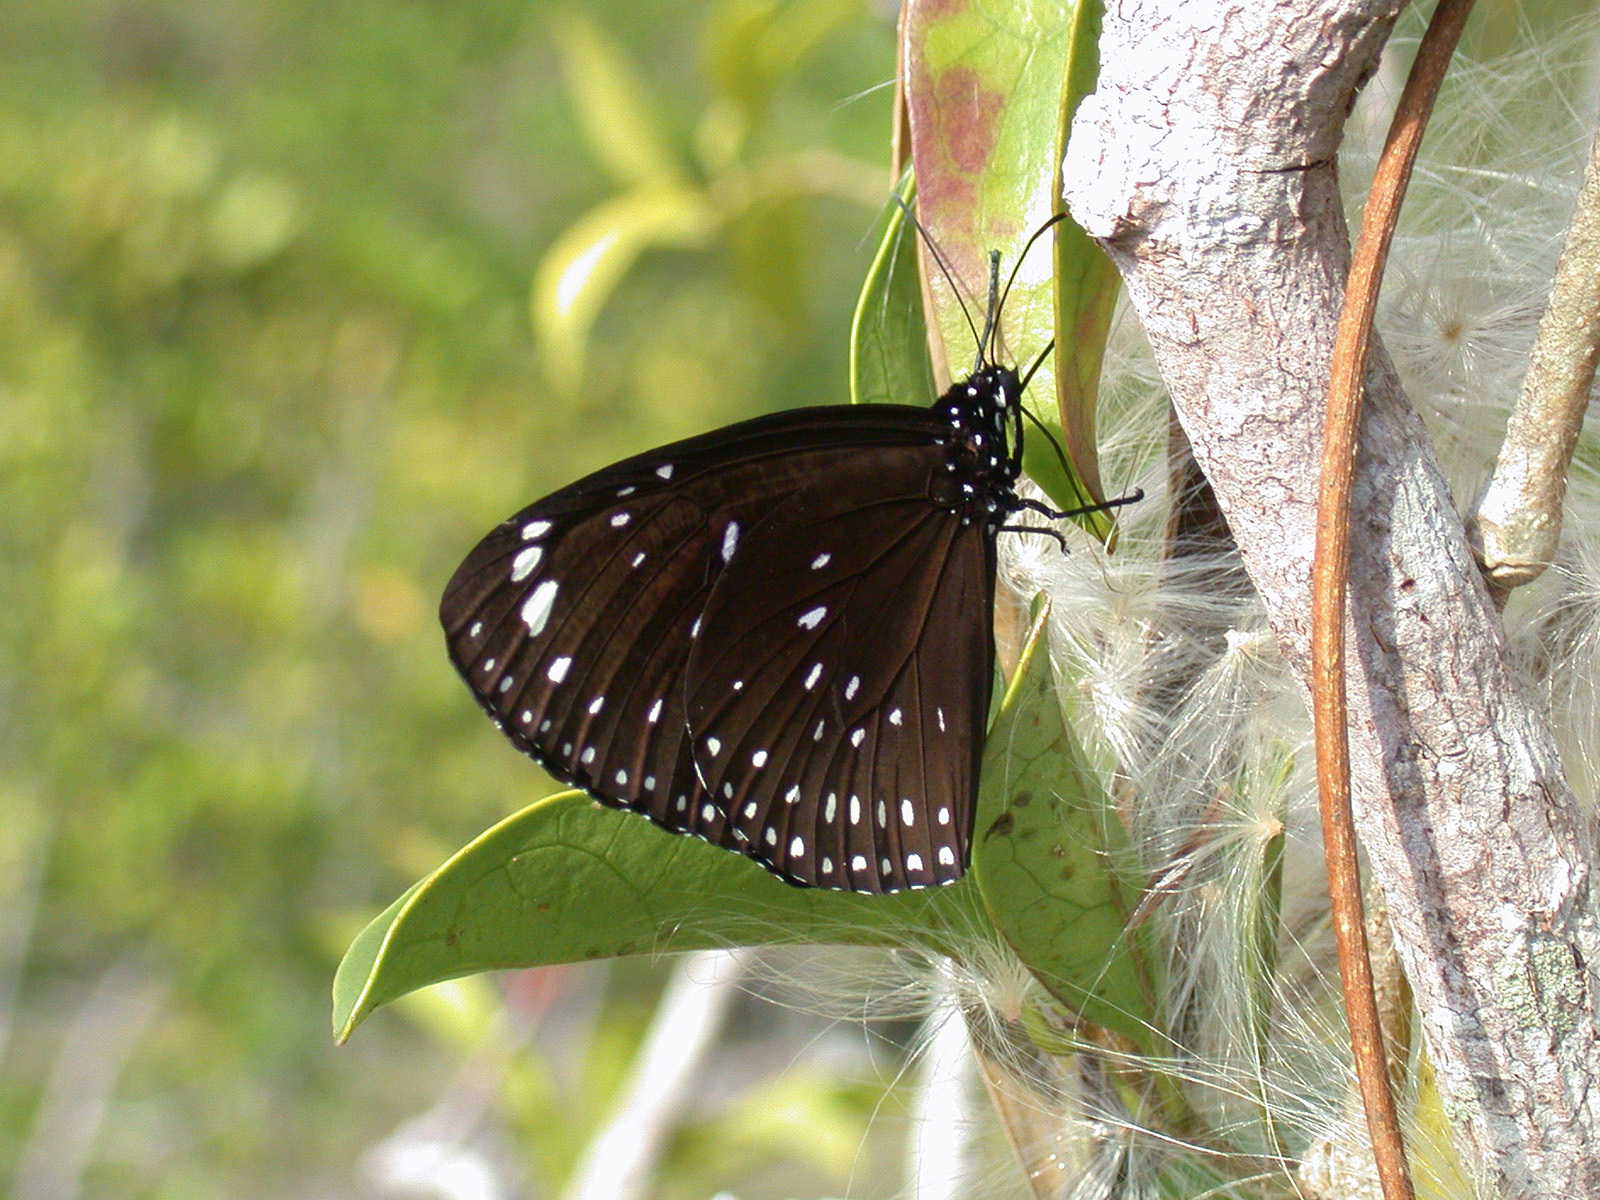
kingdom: Animalia
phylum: Arthropoda
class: Insecta
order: Lepidoptera
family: Nymphalidae
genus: Euploea
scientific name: Euploea midamus
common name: Blue-spotted crow butterfly
